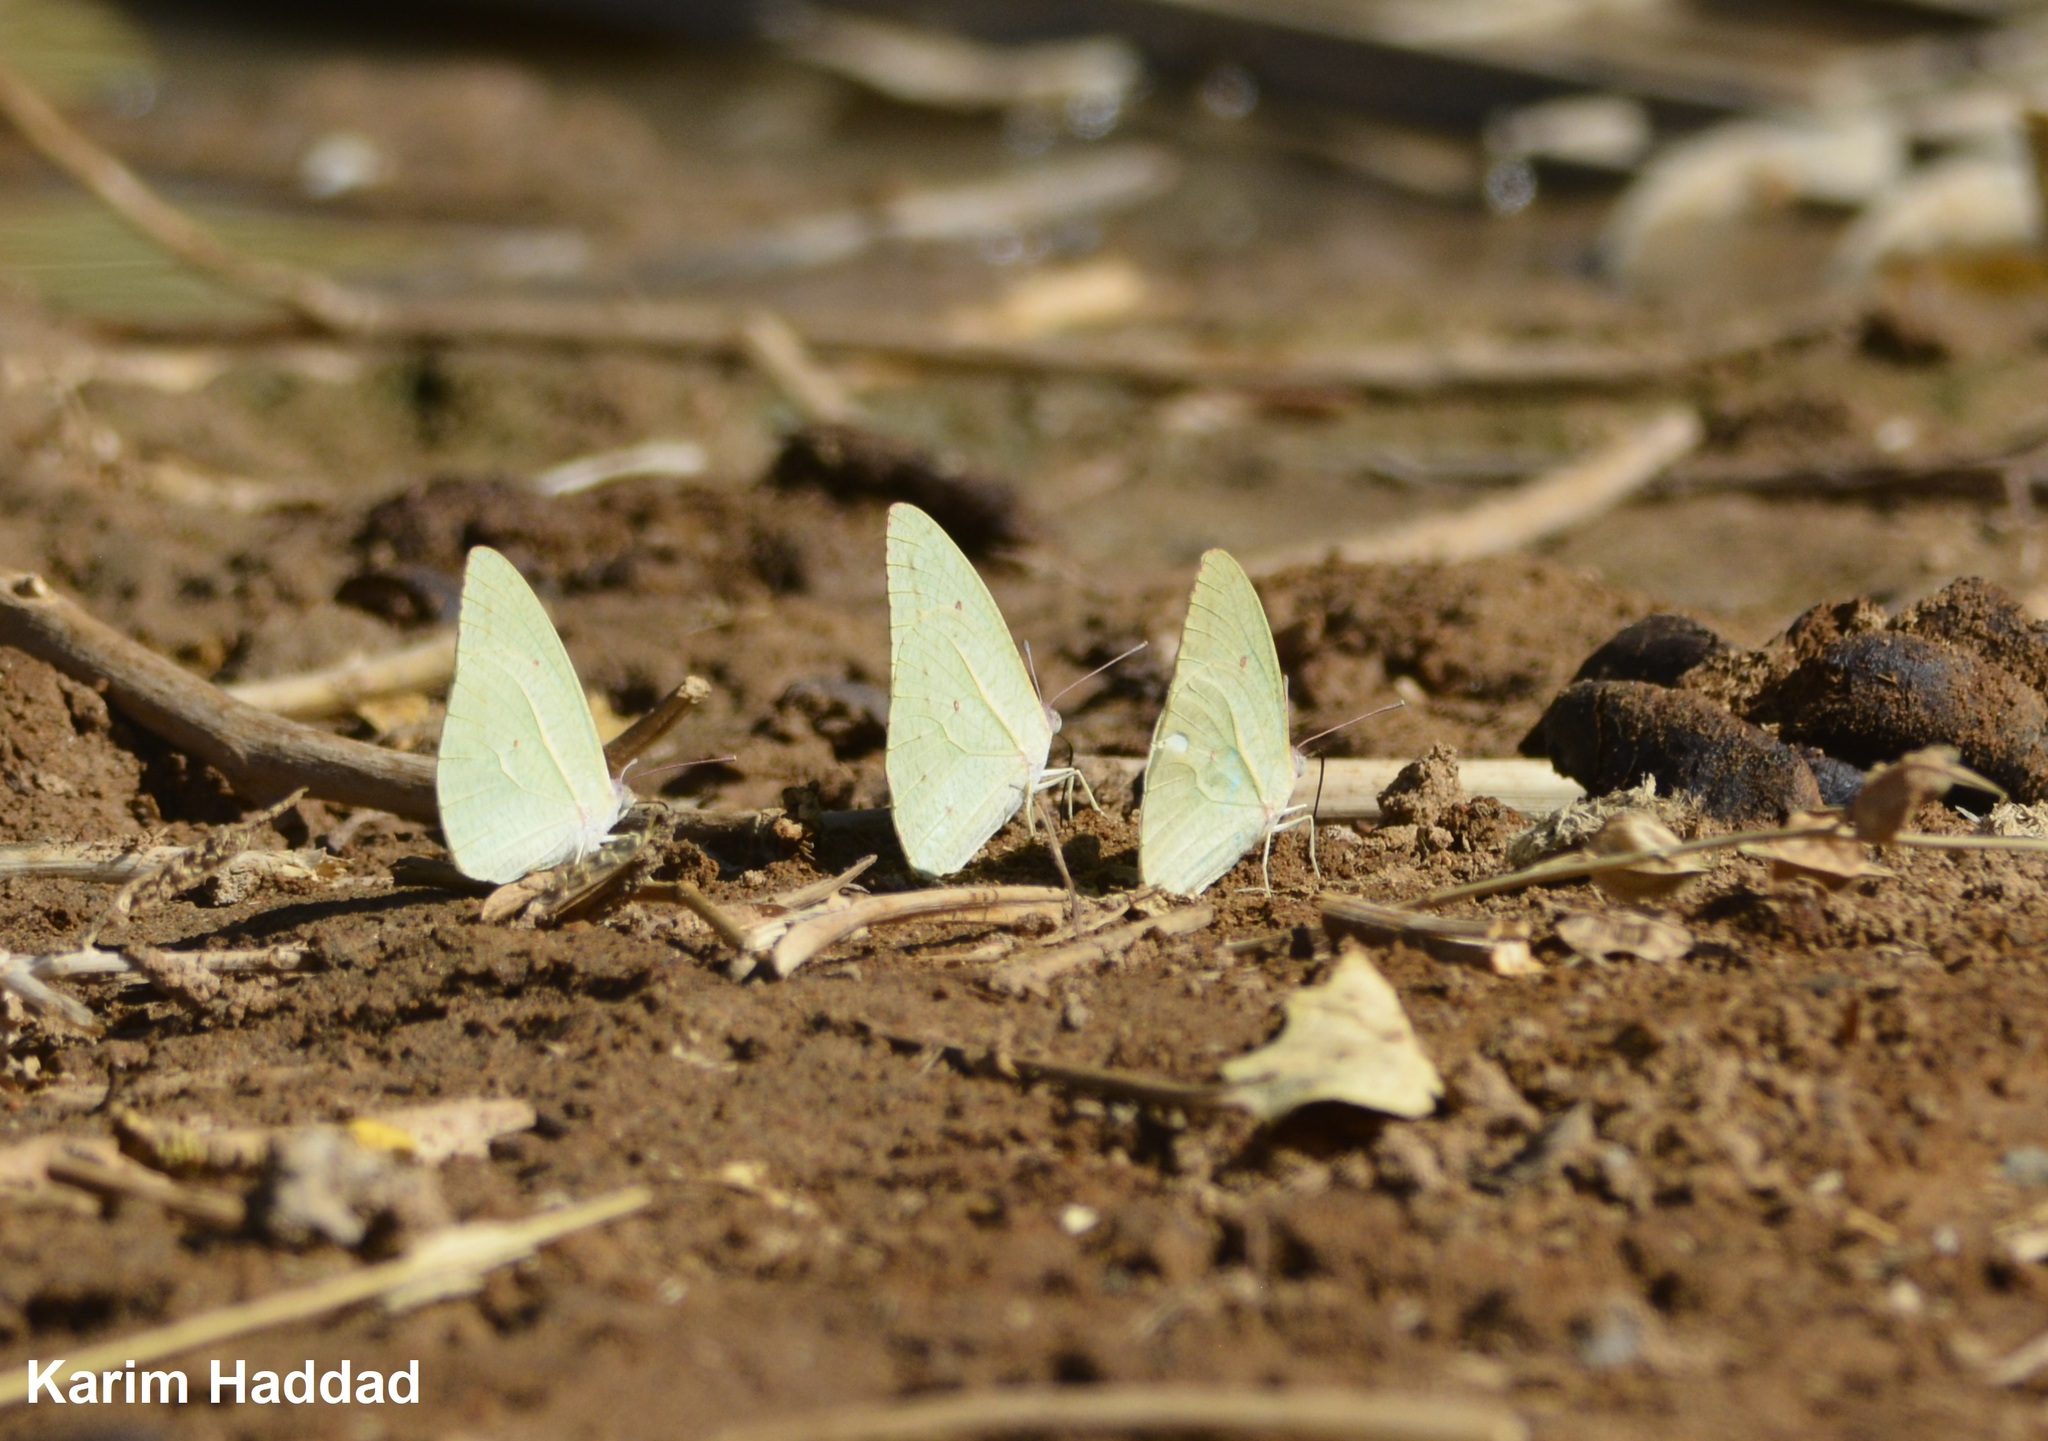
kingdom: Animalia
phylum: Arthropoda
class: Insecta
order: Lepidoptera
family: Pieridae
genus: Catopsilia
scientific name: Catopsilia florella
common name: African migrant
